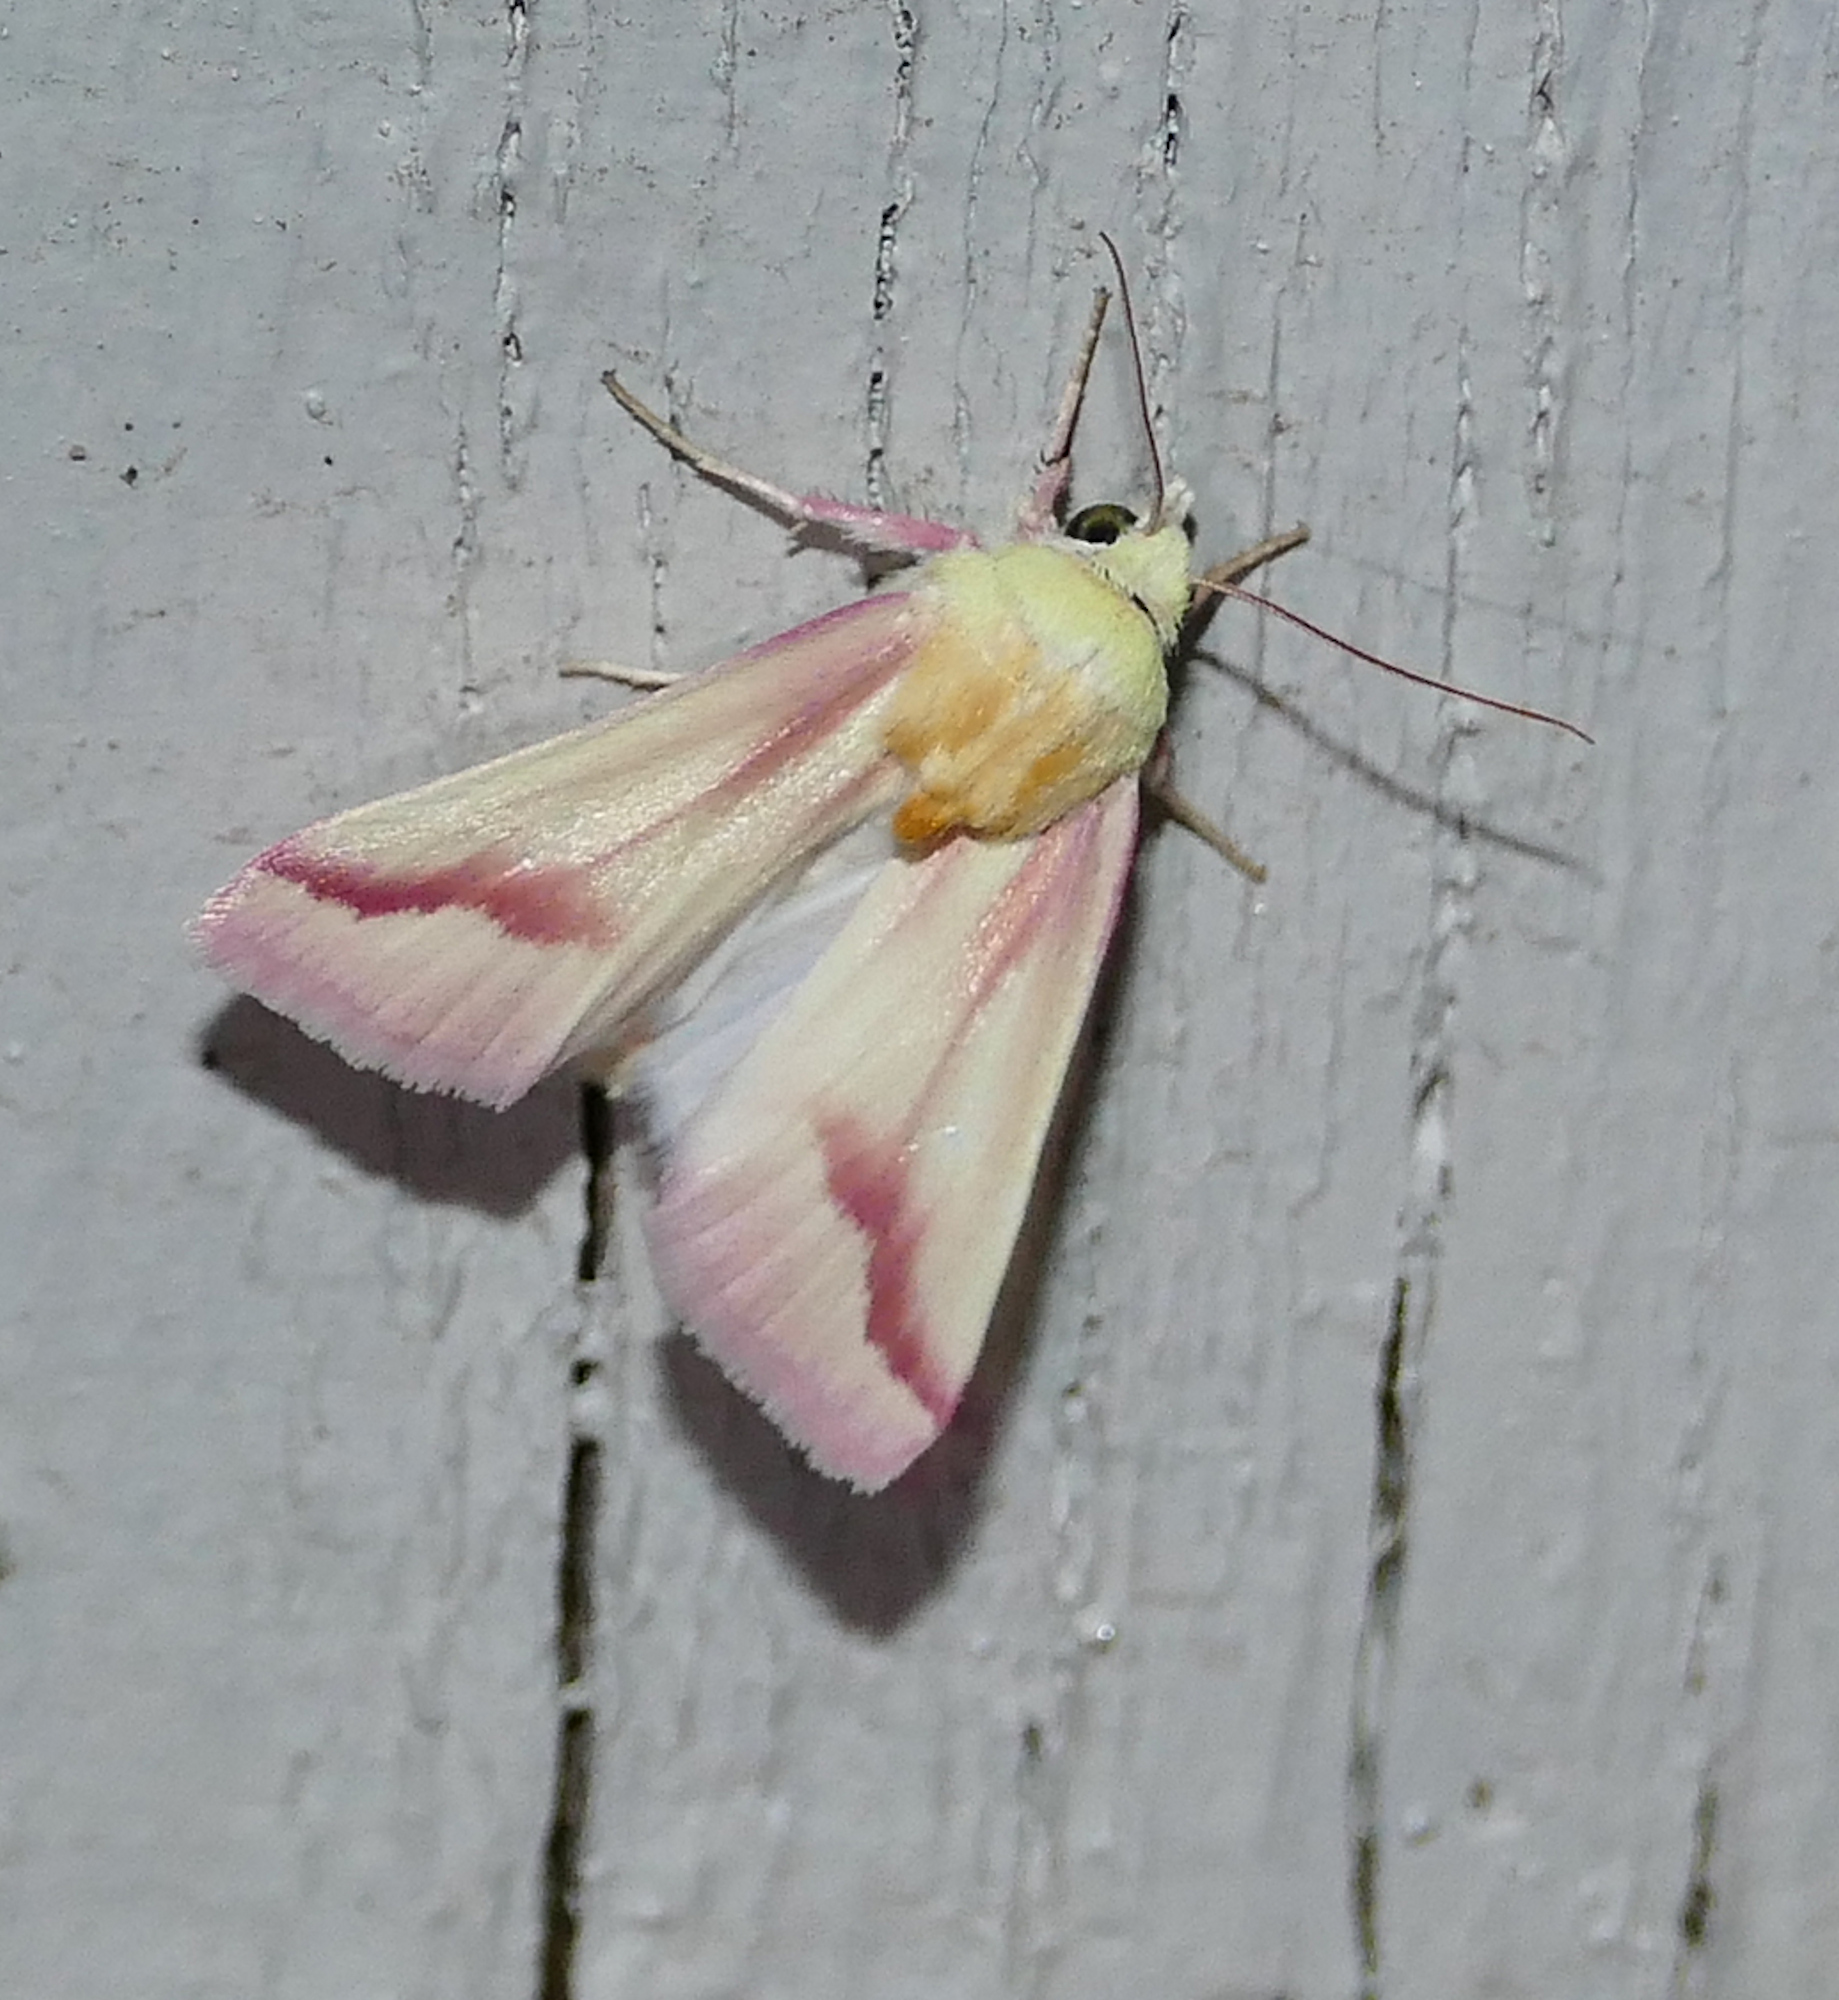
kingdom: Animalia
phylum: Arthropoda
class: Insecta
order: Lepidoptera
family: Noctuidae
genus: Schinia
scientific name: Schinia gaurae
